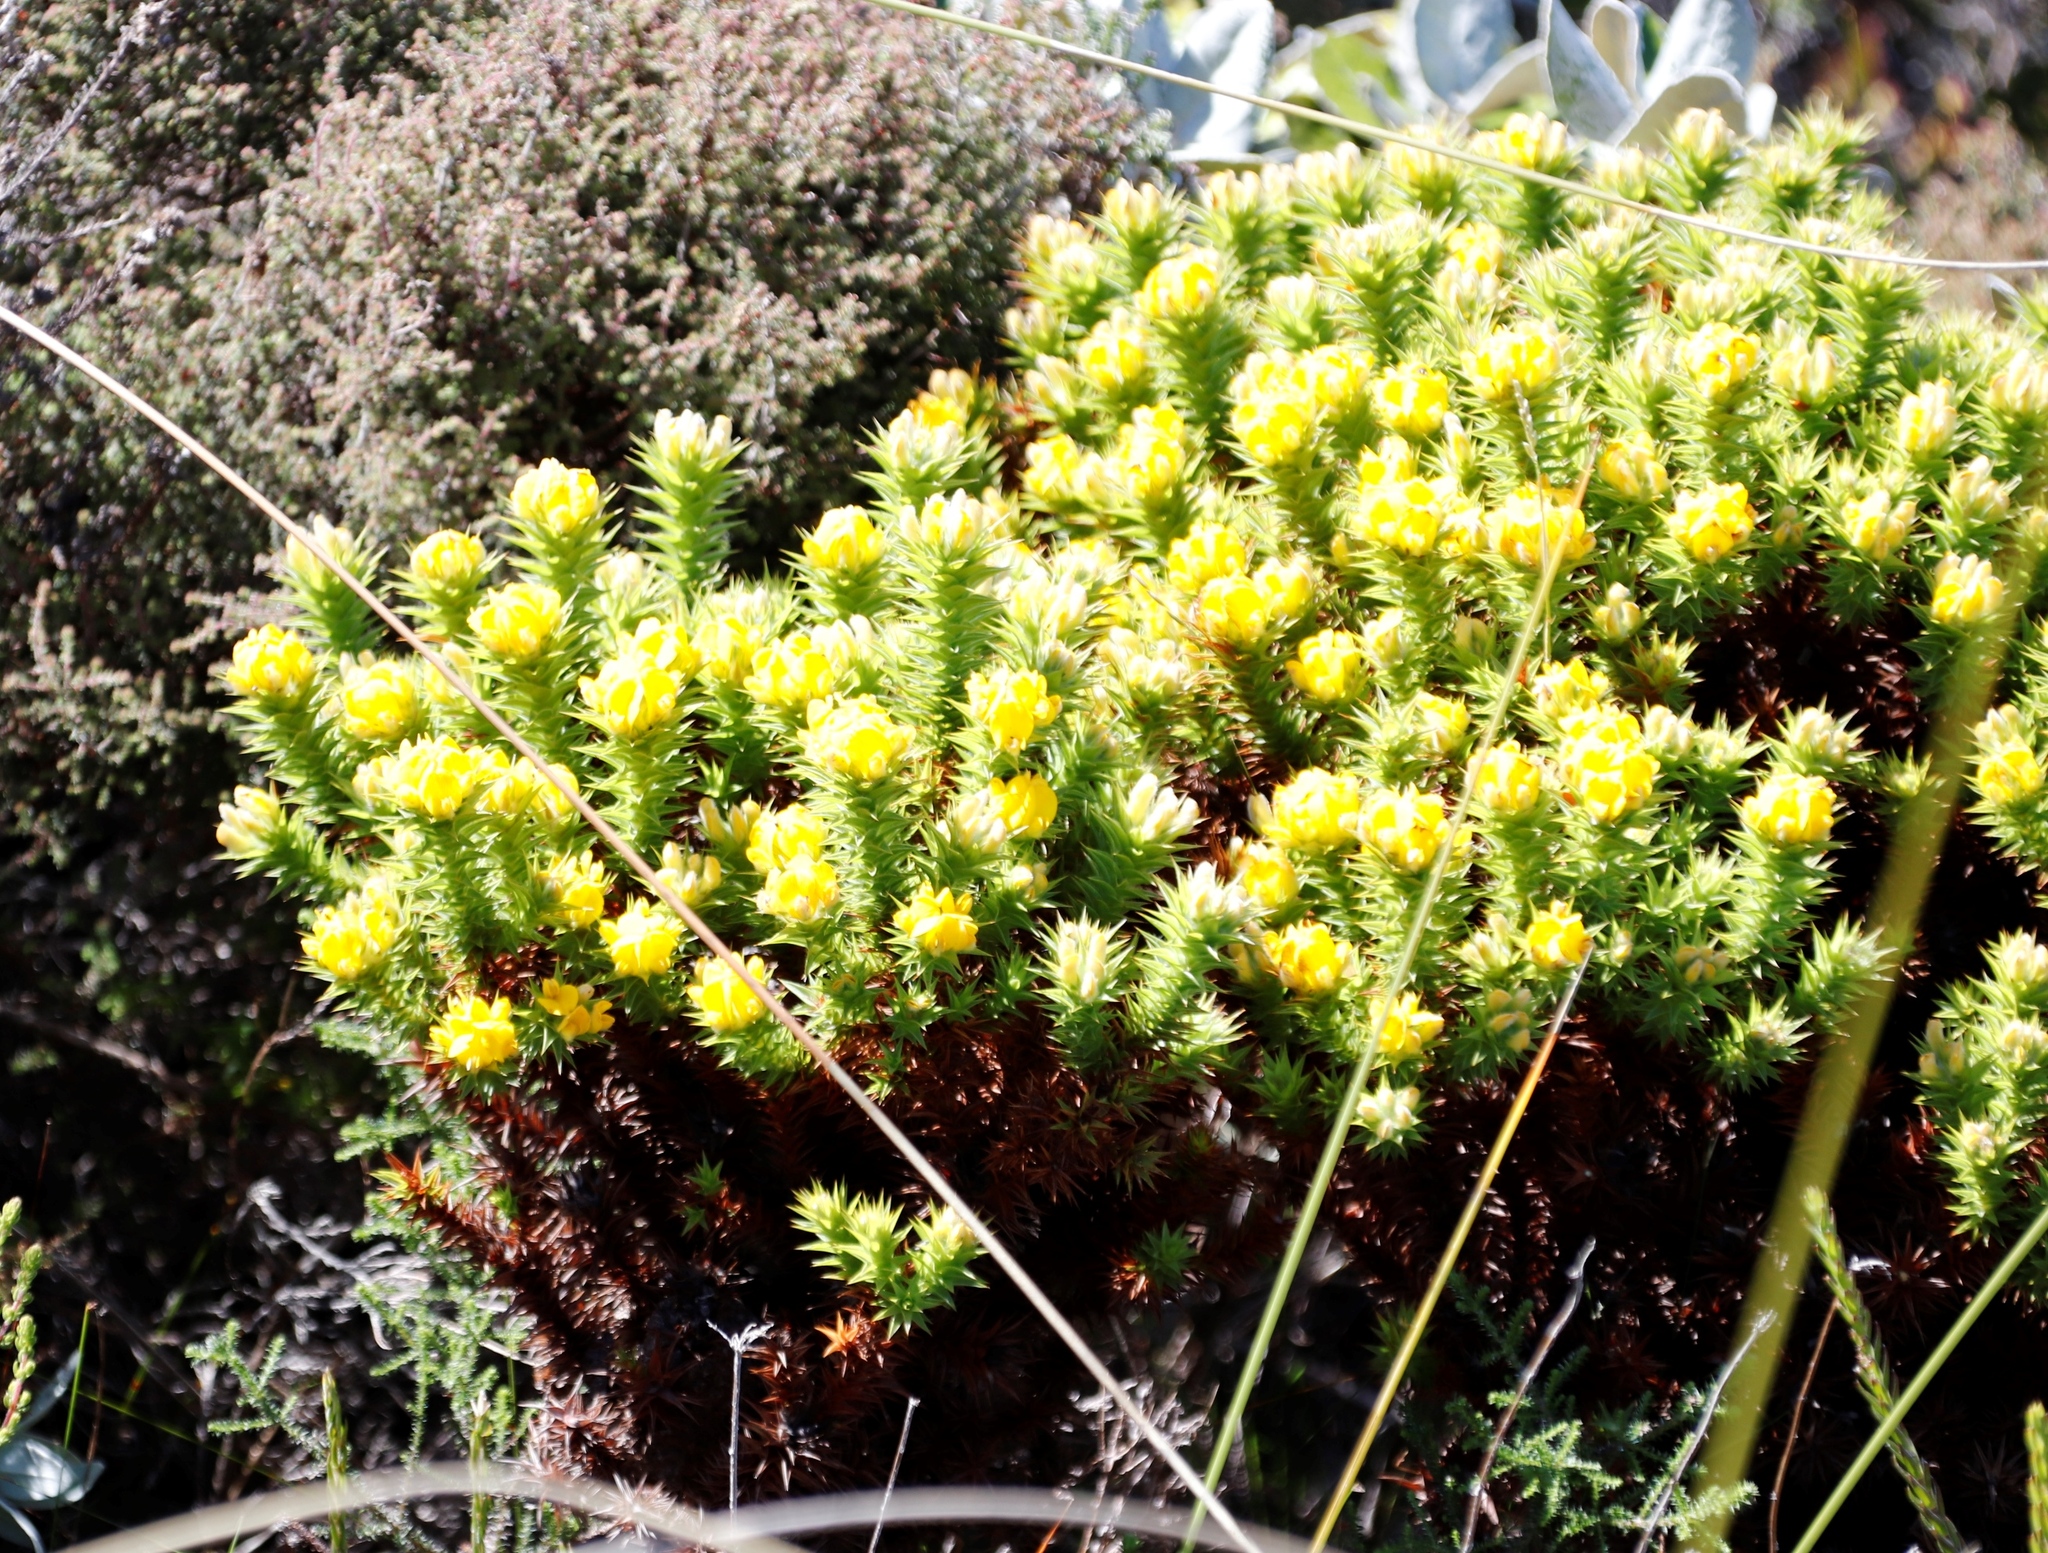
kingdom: Plantae
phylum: Tracheophyta
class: Magnoliopsida
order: Fabales
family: Fabaceae
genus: Aspalathus
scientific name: Aspalathus barbata
